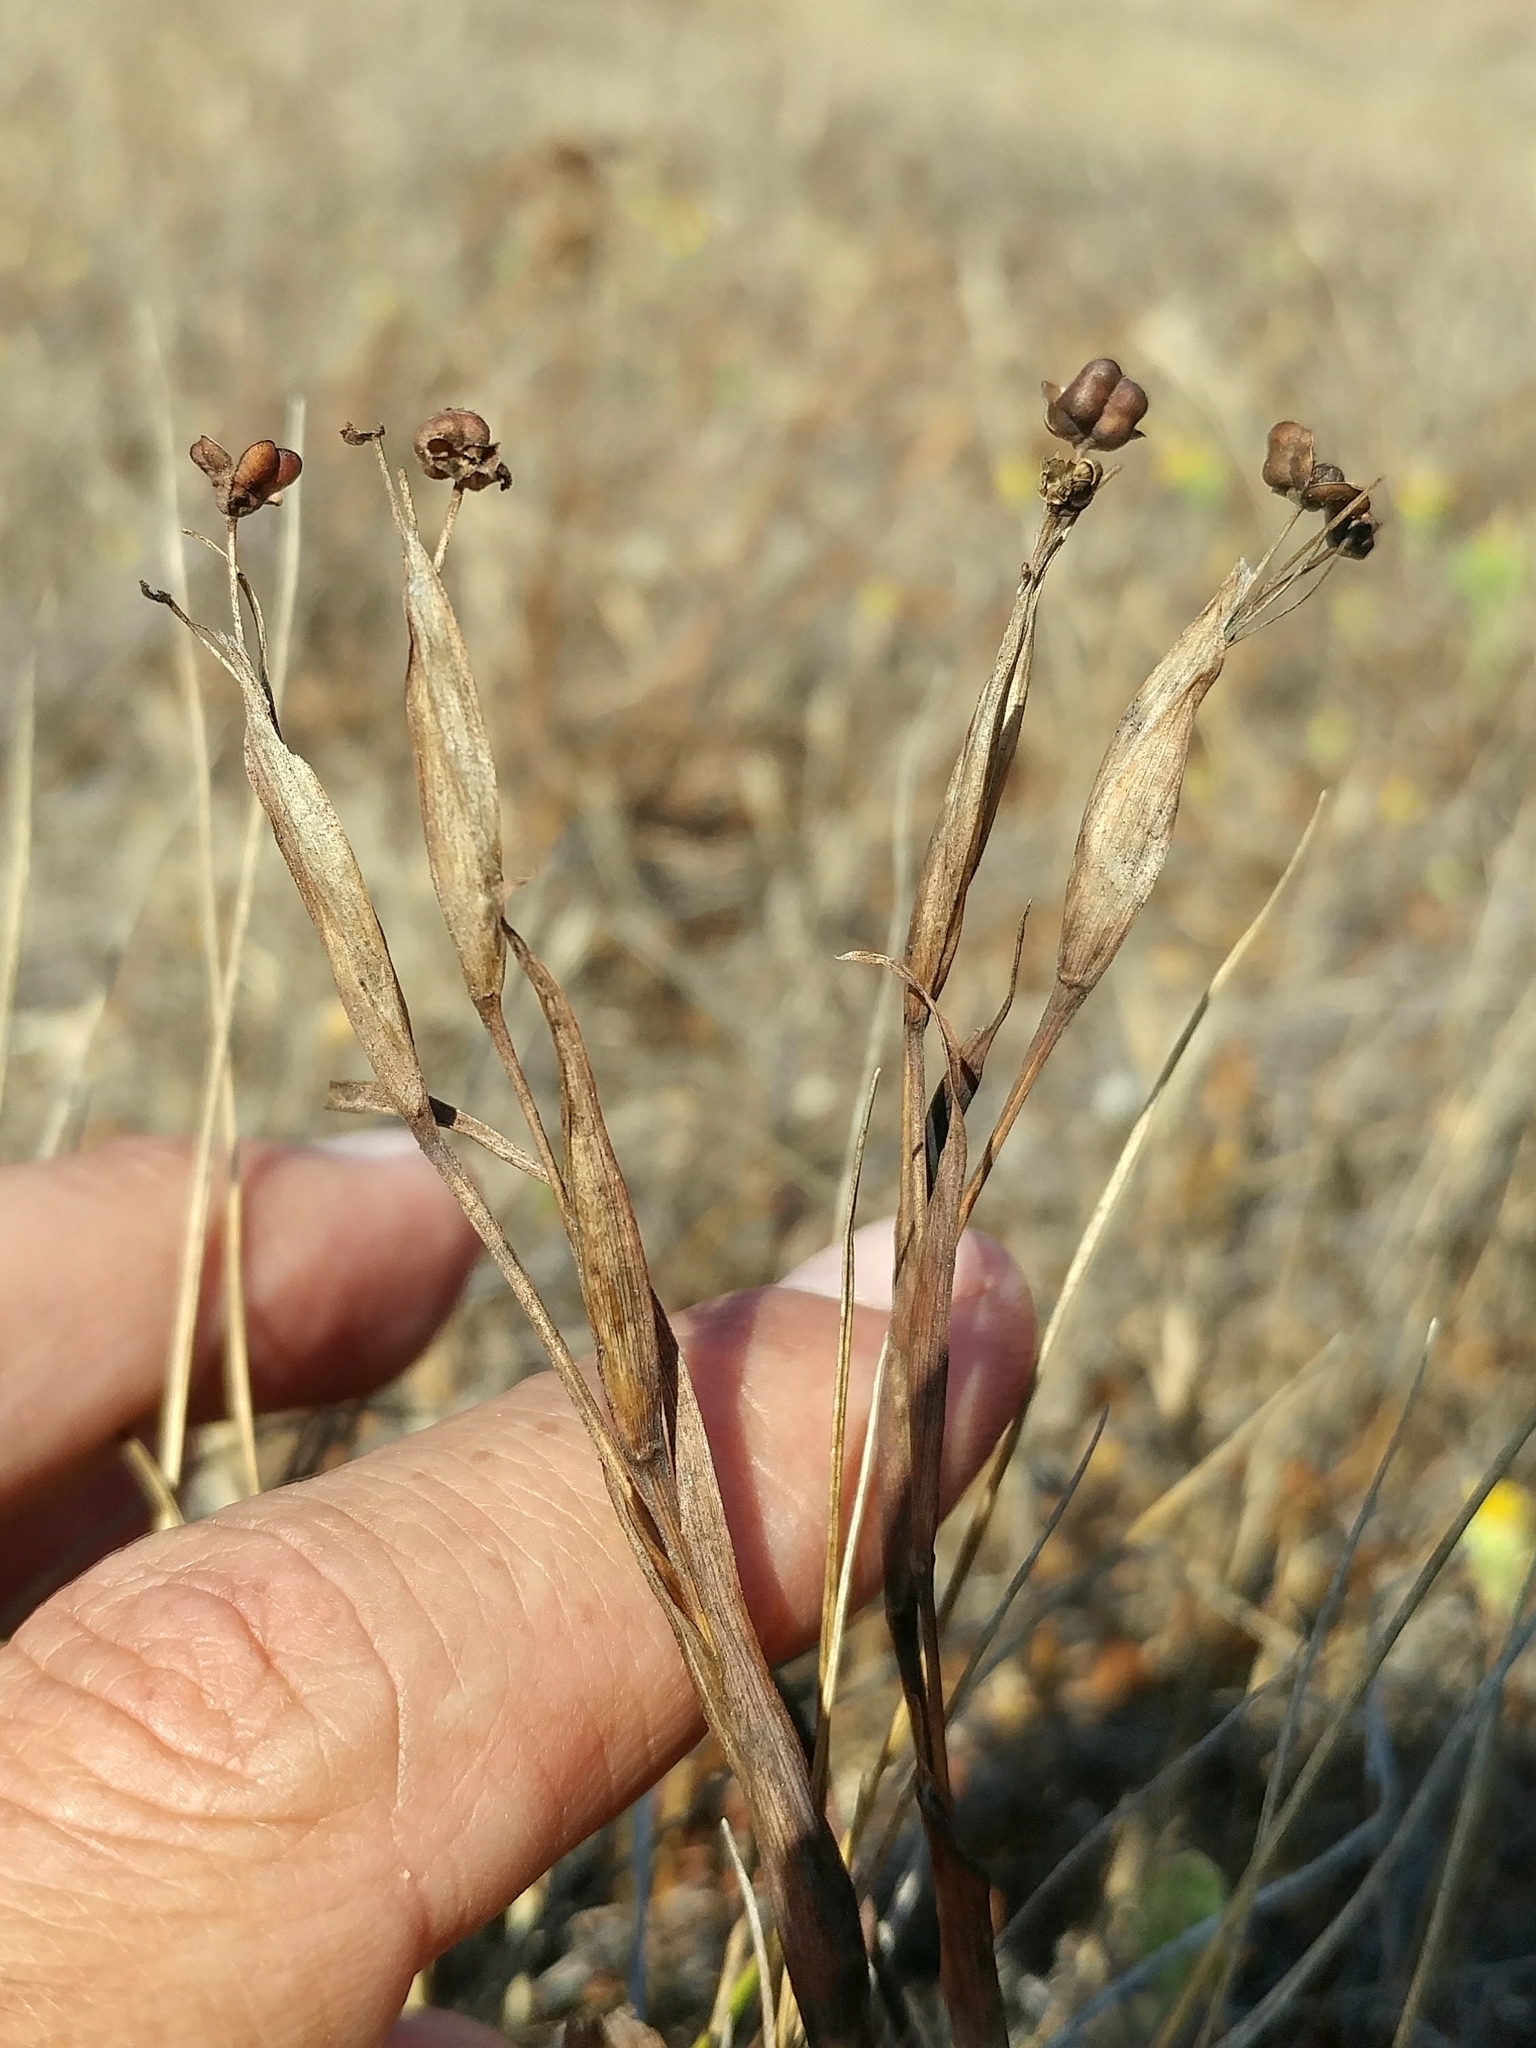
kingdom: Plantae
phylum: Tracheophyta
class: Liliopsida
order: Asparagales
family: Iridaceae
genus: Sisyrinchium
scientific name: Sisyrinchium bellum
